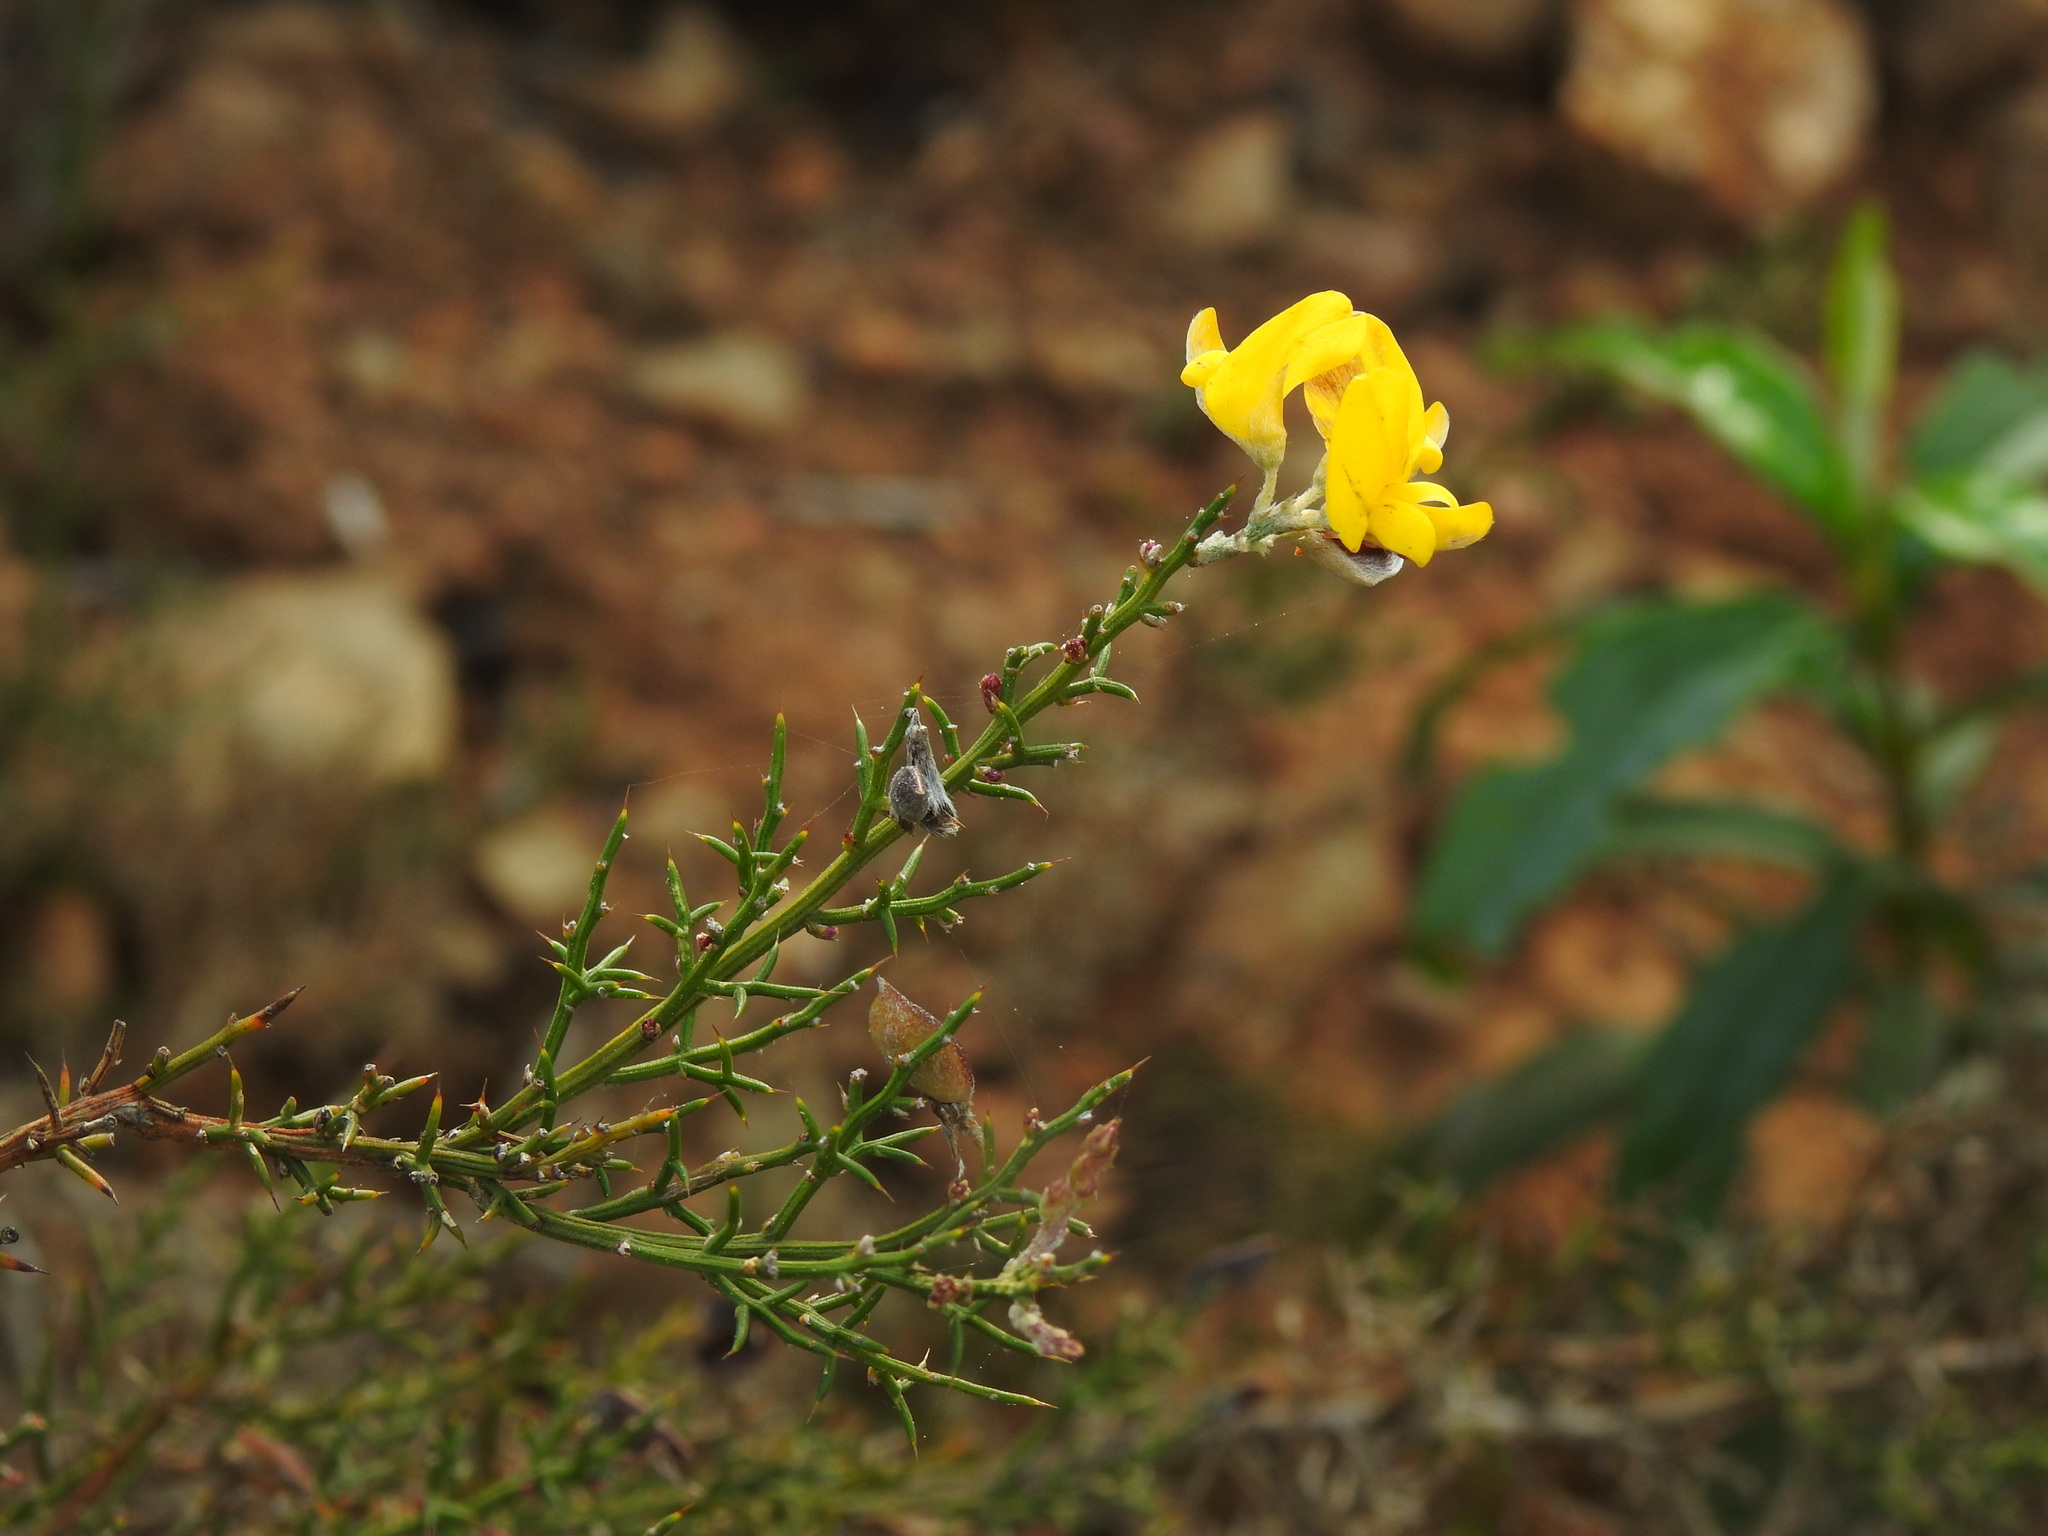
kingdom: Plantae
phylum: Tracheophyta
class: Magnoliopsida
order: Fabales
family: Fabaceae
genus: Stauracanthus
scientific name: Stauracanthus boivinii
